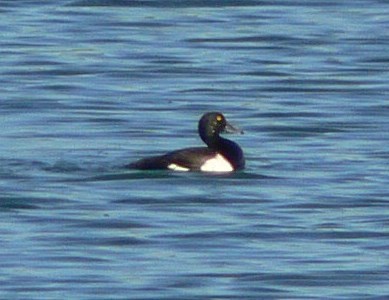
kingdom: Animalia
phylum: Chordata
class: Aves
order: Anseriformes
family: Anatidae
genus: Aythya
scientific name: Aythya fuligula
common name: Tufted duck
